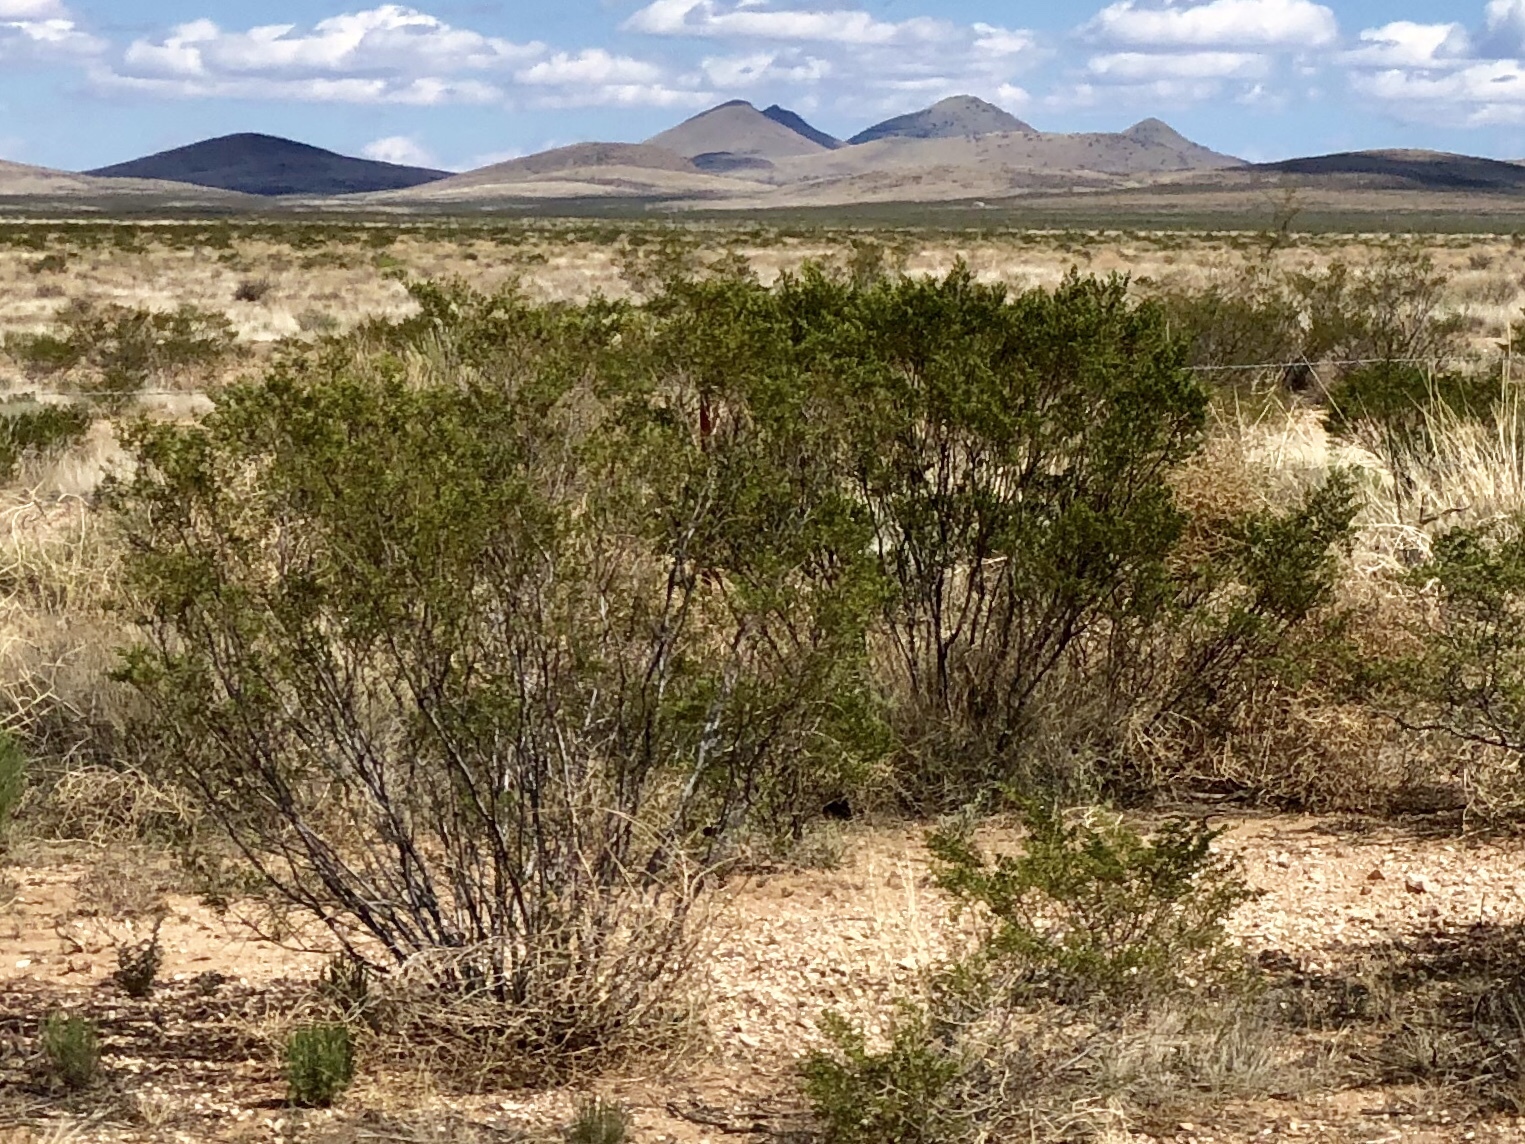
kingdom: Plantae
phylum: Tracheophyta
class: Magnoliopsida
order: Zygophyllales
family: Zygophyllaceae
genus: Larrea
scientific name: Larrea tridentata
